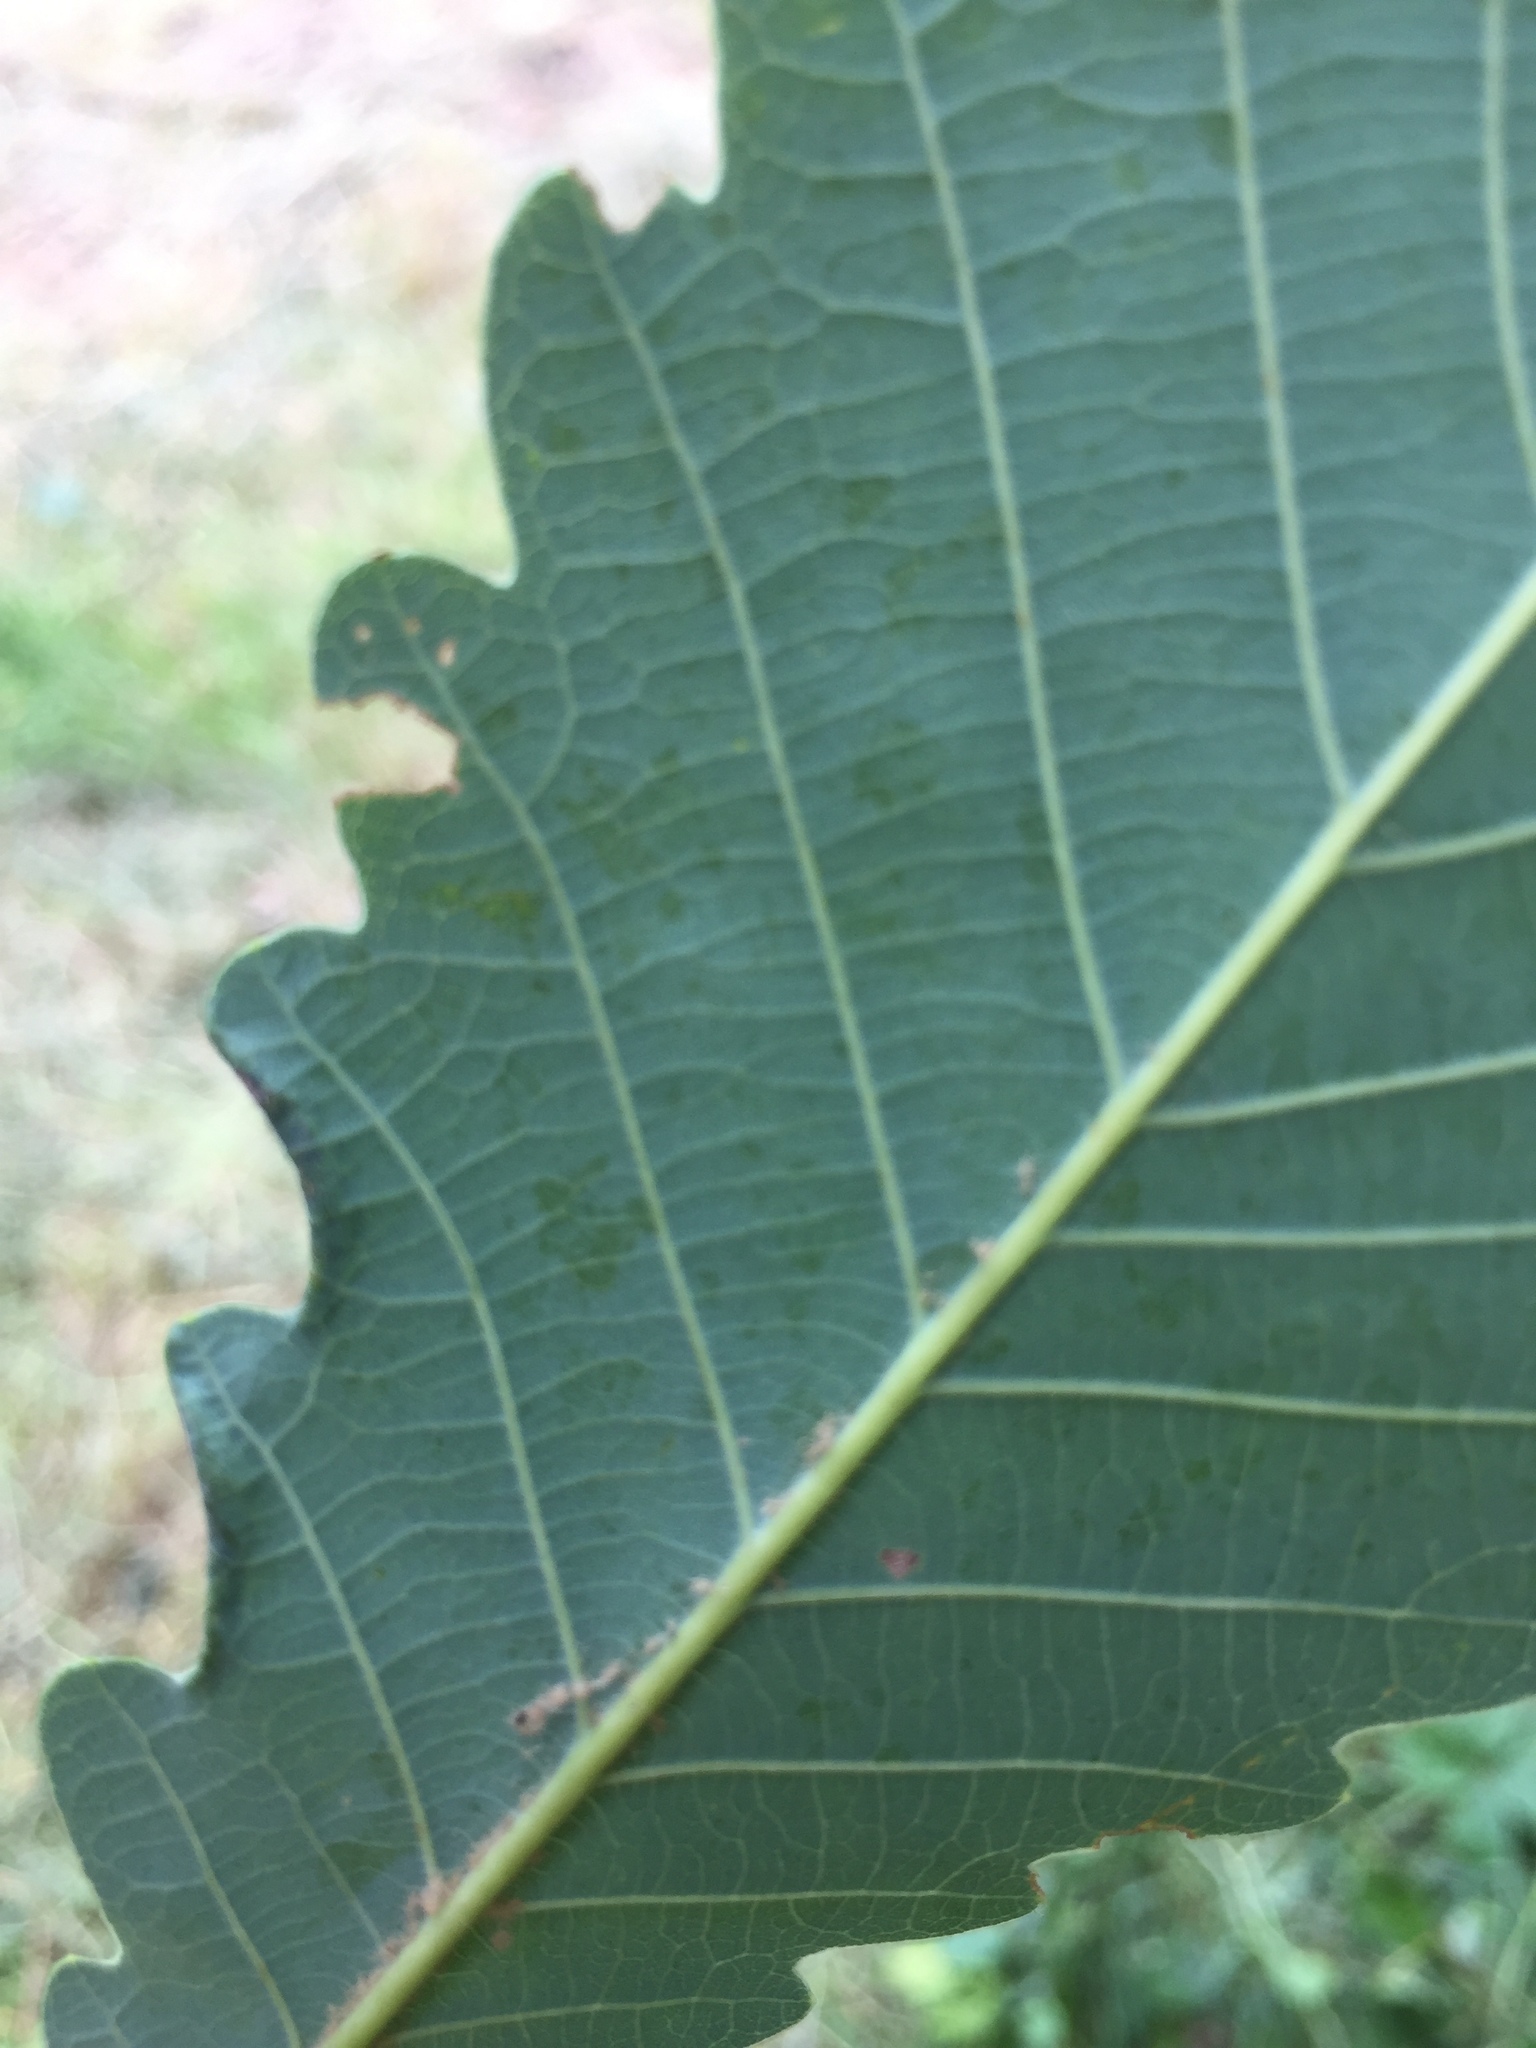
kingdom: Animalia
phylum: Arthropoda
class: Insecta
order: Diptera
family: Cecidomyiidae
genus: Macrodiplosis
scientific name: Macrodiplosis volvens
